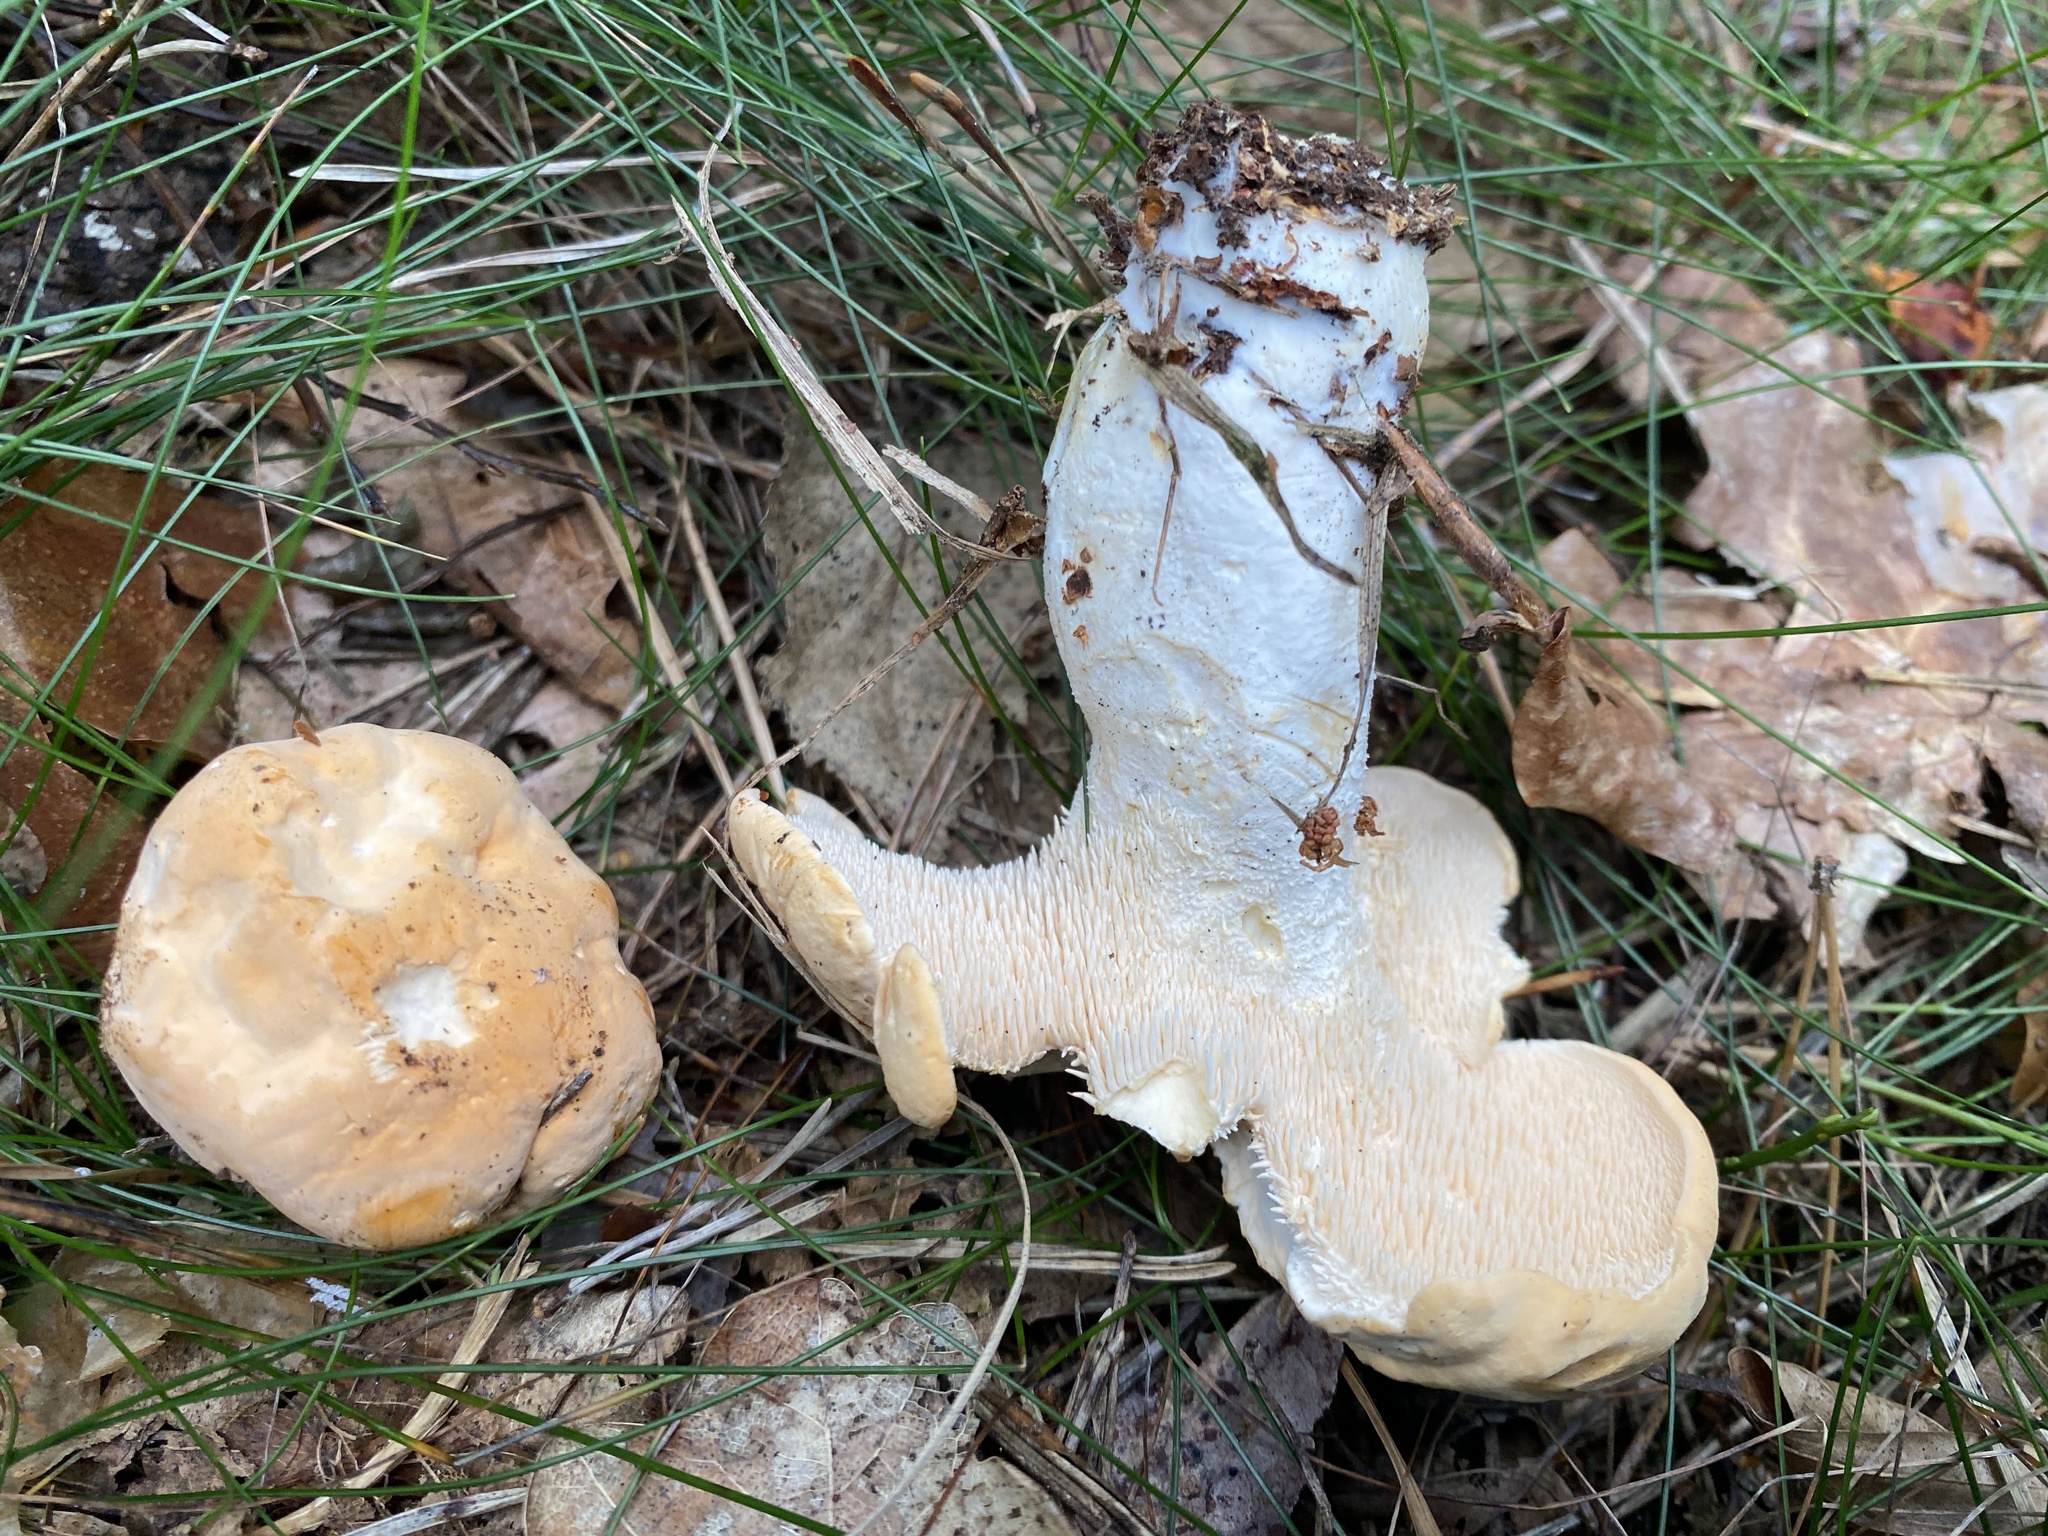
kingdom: Fungi
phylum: Basidiomycota
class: Agaricomycetes
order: Cantharellales
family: Hydnaceae
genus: Hydnum
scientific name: Hydnum repandum
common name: Wood hedgehog
